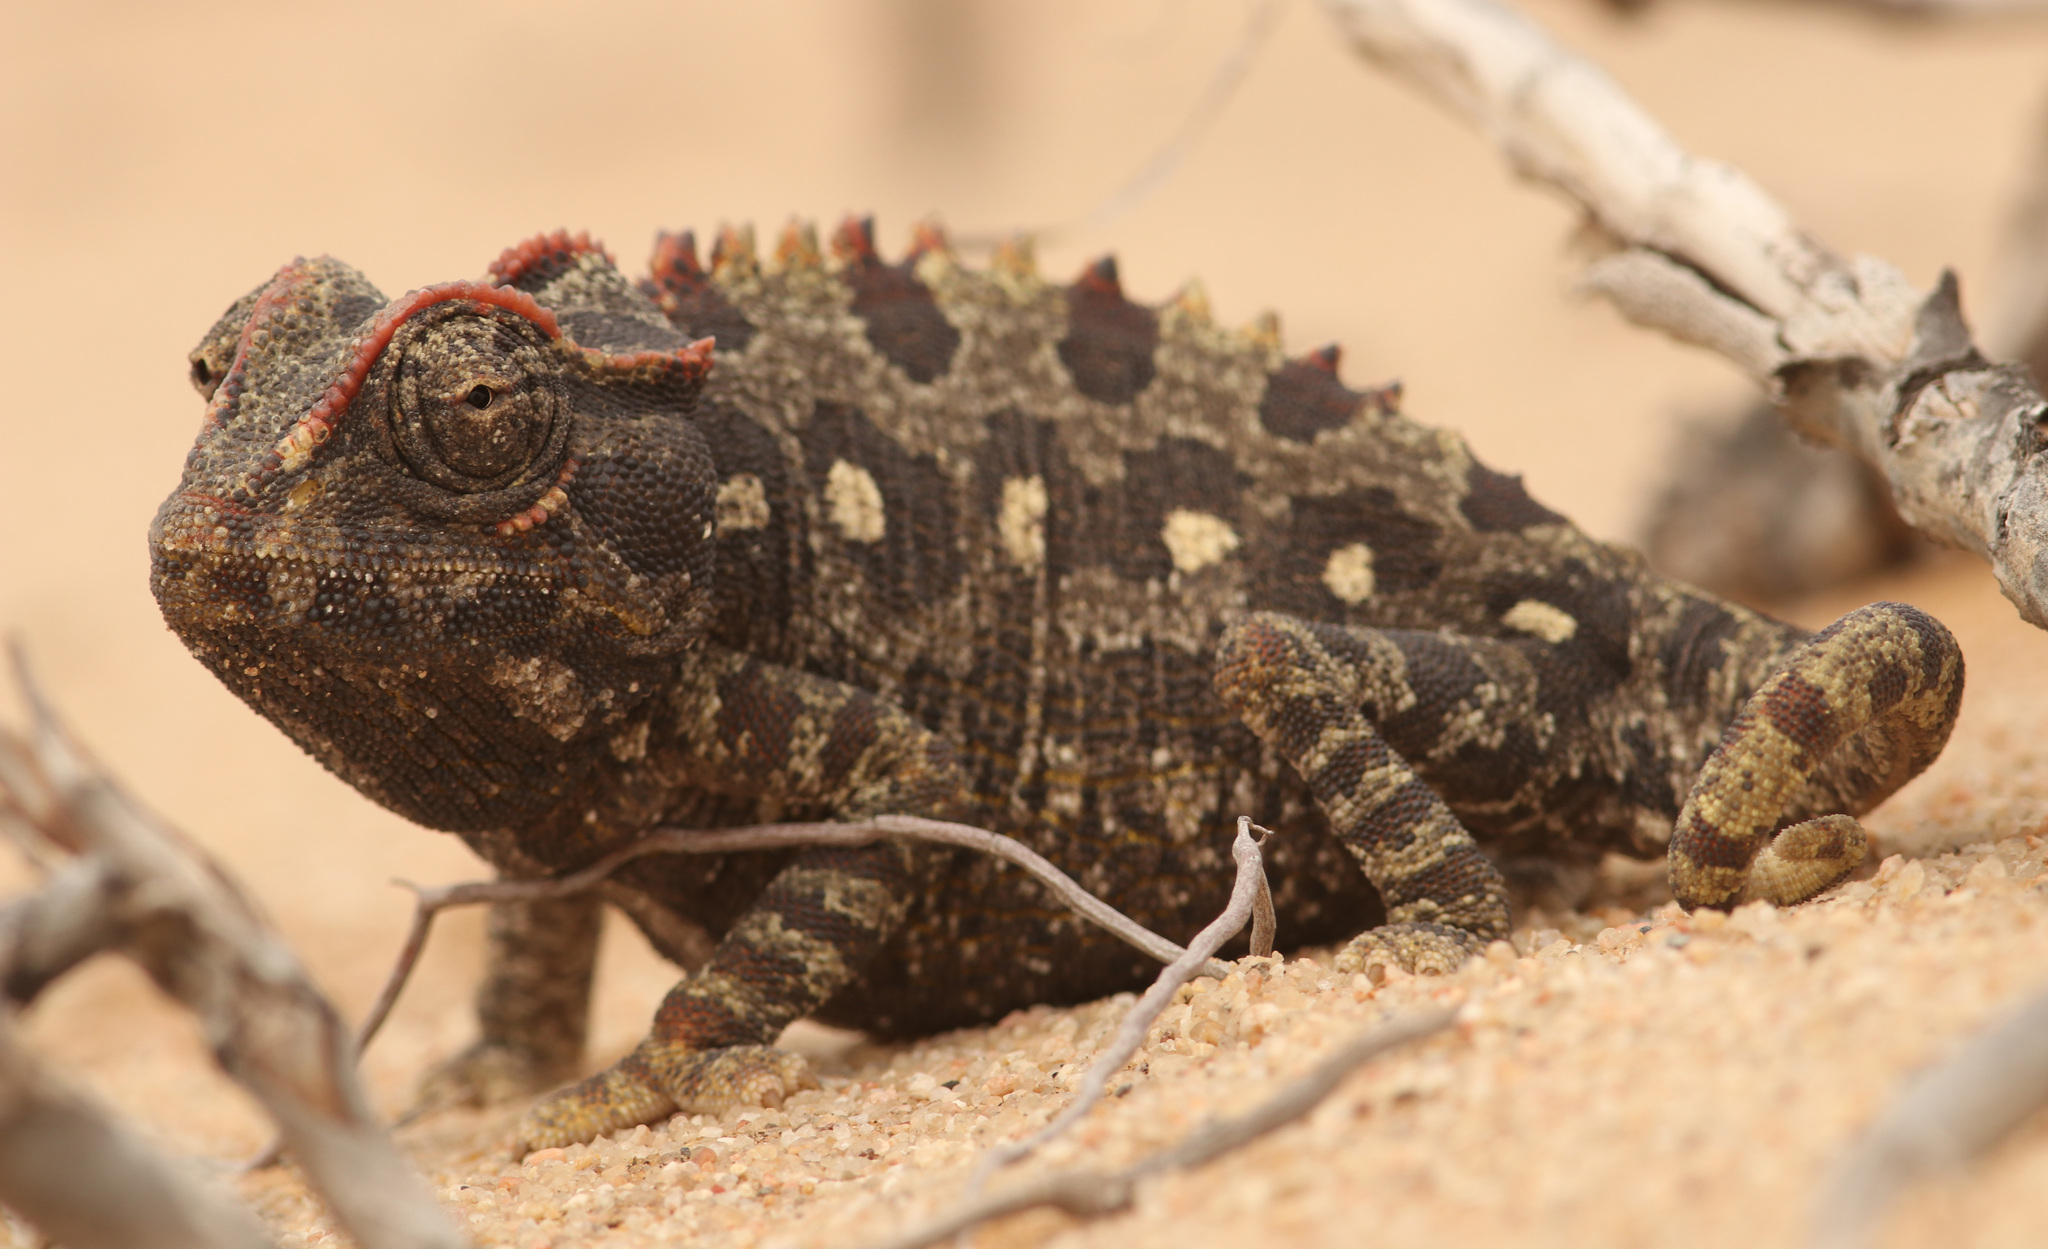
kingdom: Animalia
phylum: Chordata
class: Squamata
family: Chamaeleonidae
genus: Chamaeleo
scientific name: Chamaeleo namaquensis
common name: Namaqua chameleon
